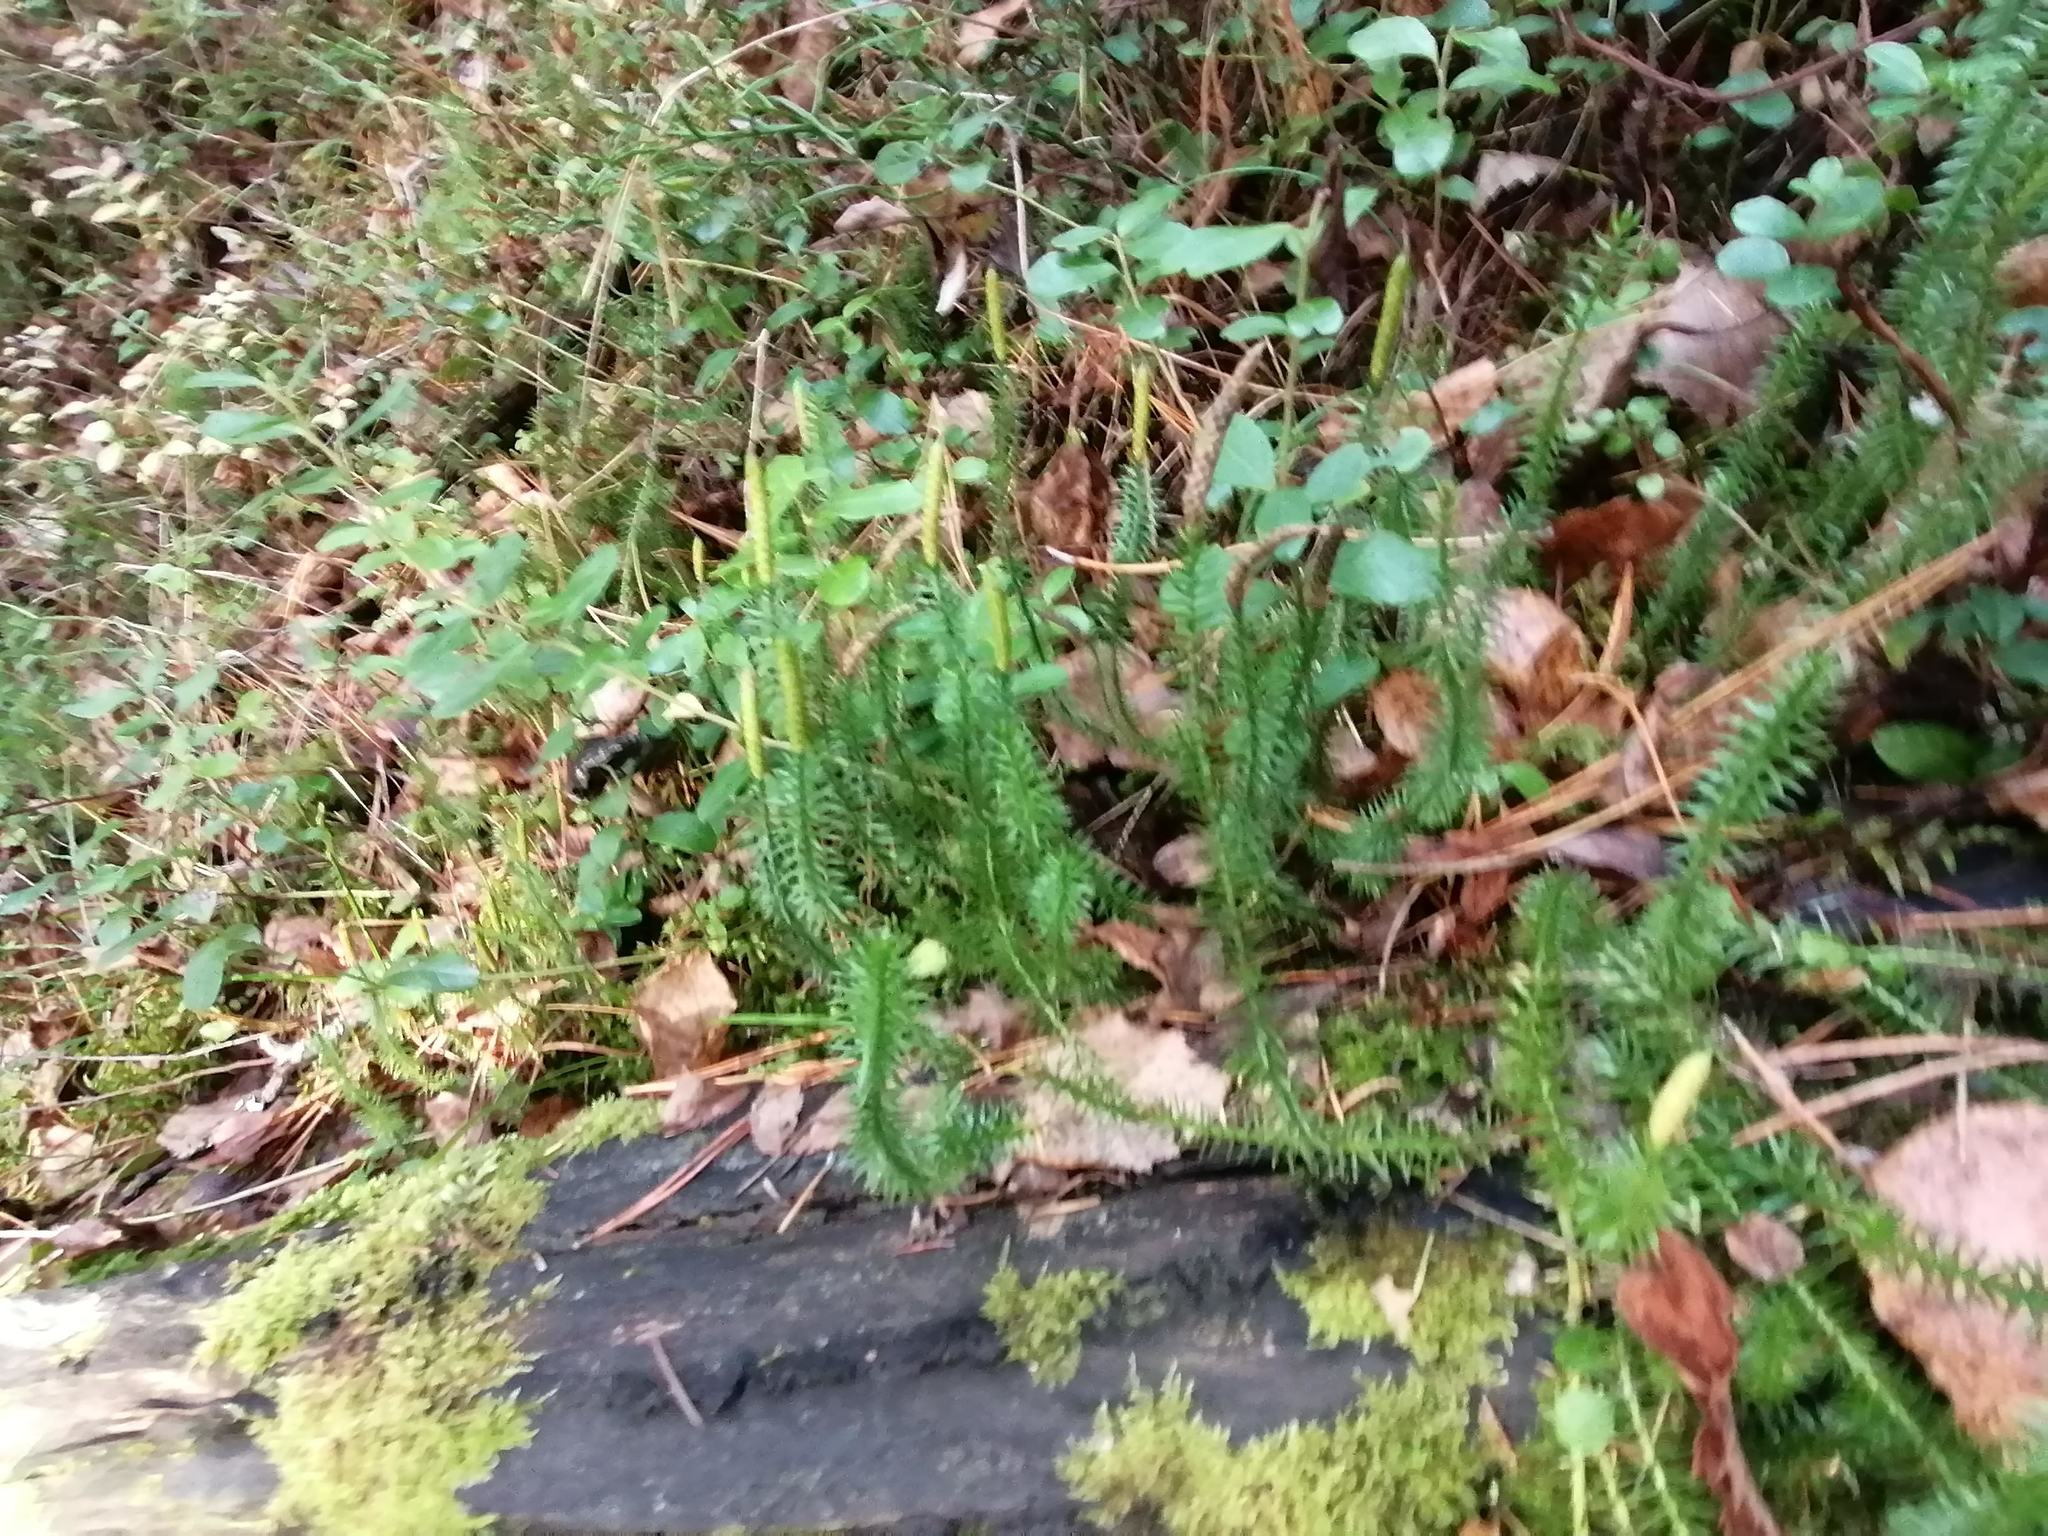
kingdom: Plantae
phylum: Tracheophyta
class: Lycopodiopsida
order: Lycopodiales
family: Lycopodiaceae
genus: Spinulum
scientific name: Spinulum annotinum
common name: Interrupted club-moss
